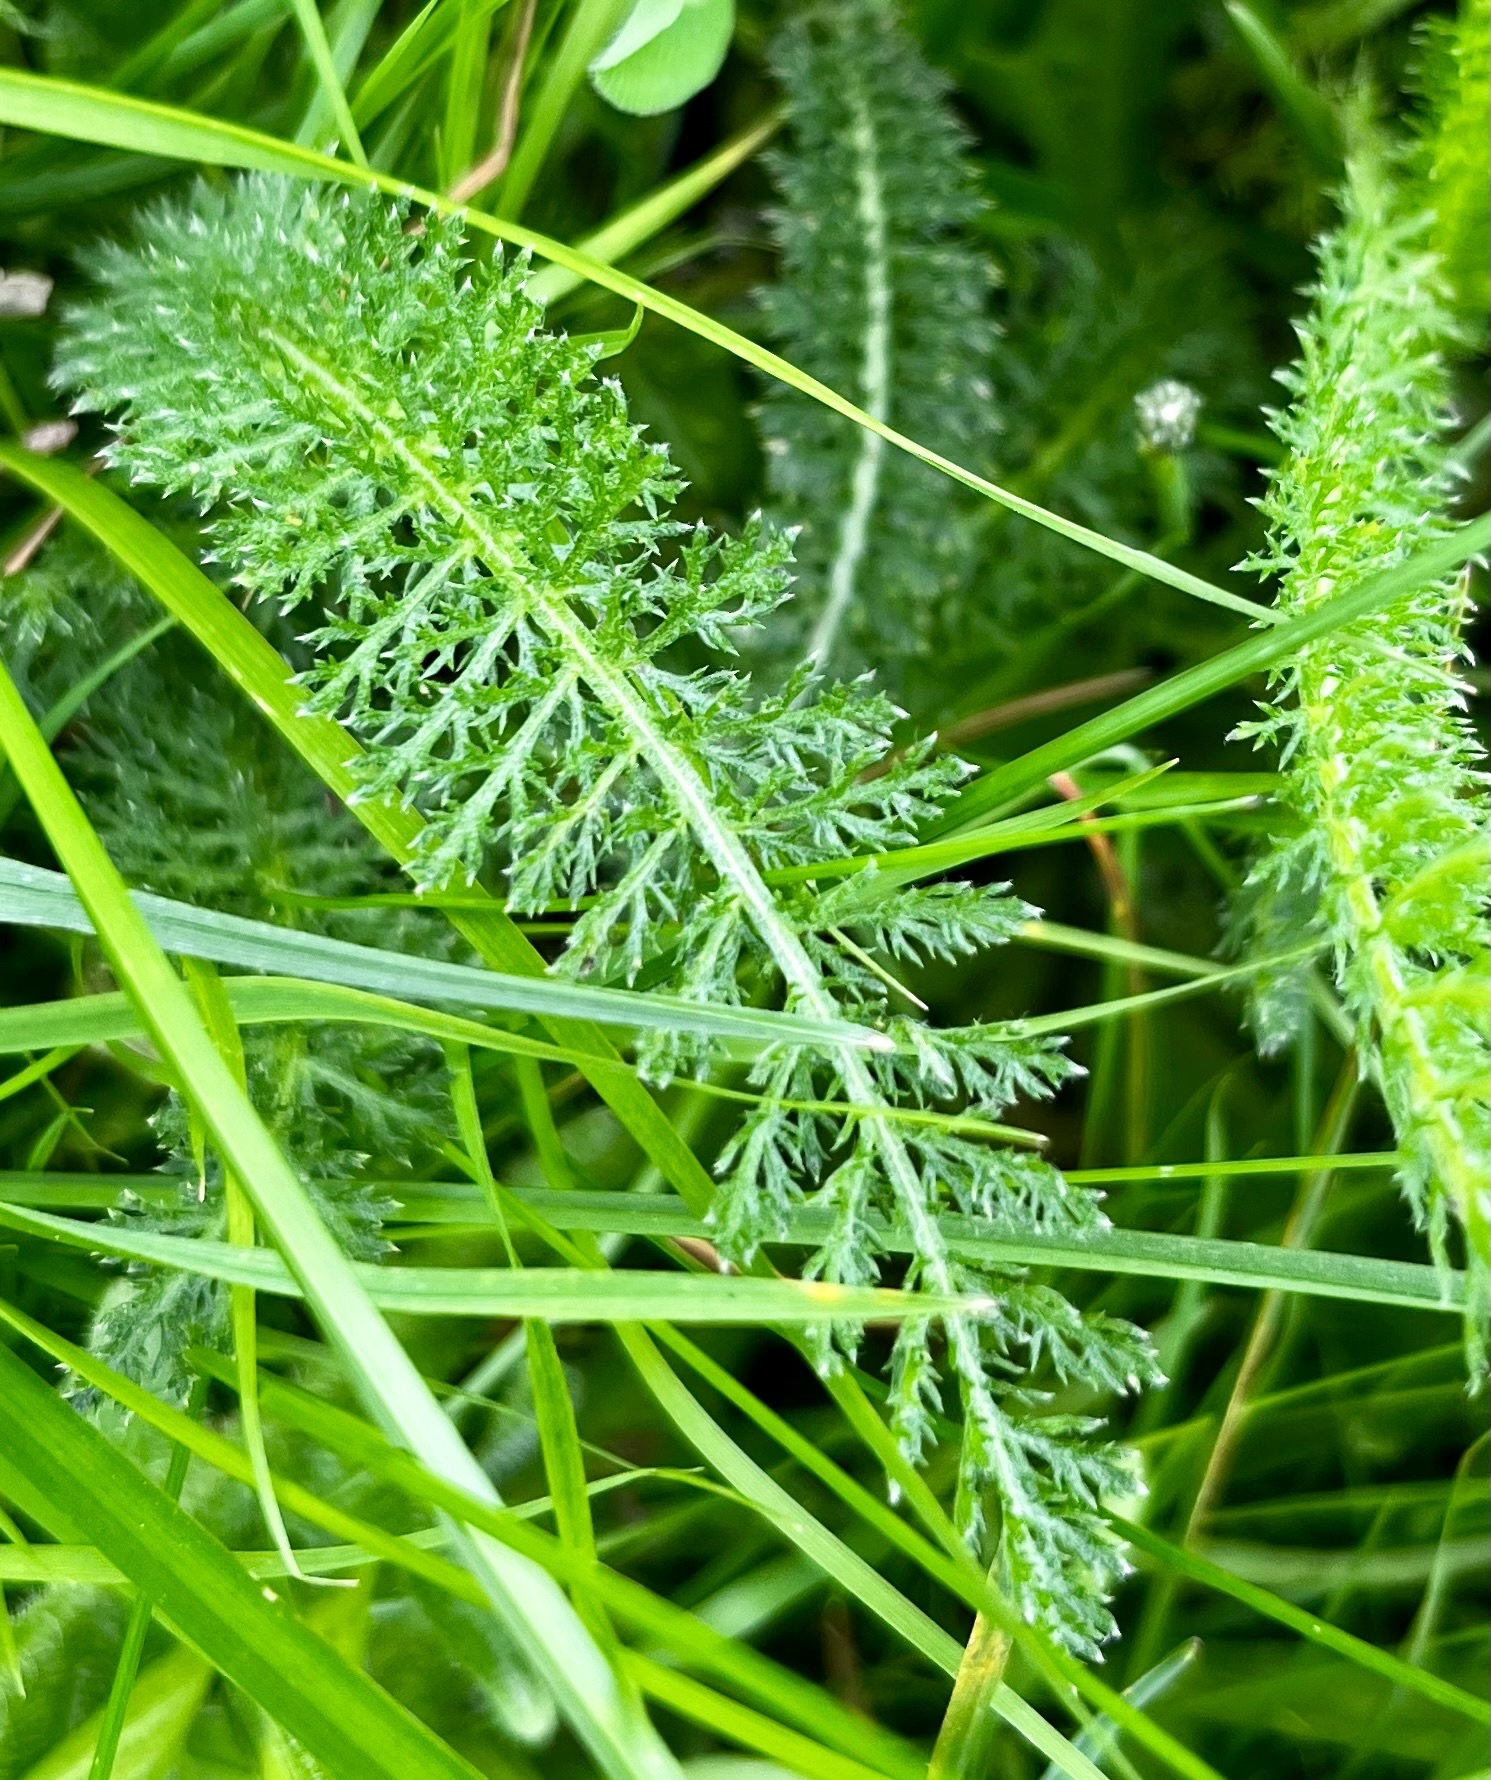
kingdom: Plantae
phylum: Tracheophyta
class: Magnoliopsida
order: Asterales
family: Asteraceae
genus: Achillea
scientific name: Achillea millefolium
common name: Yarrow
